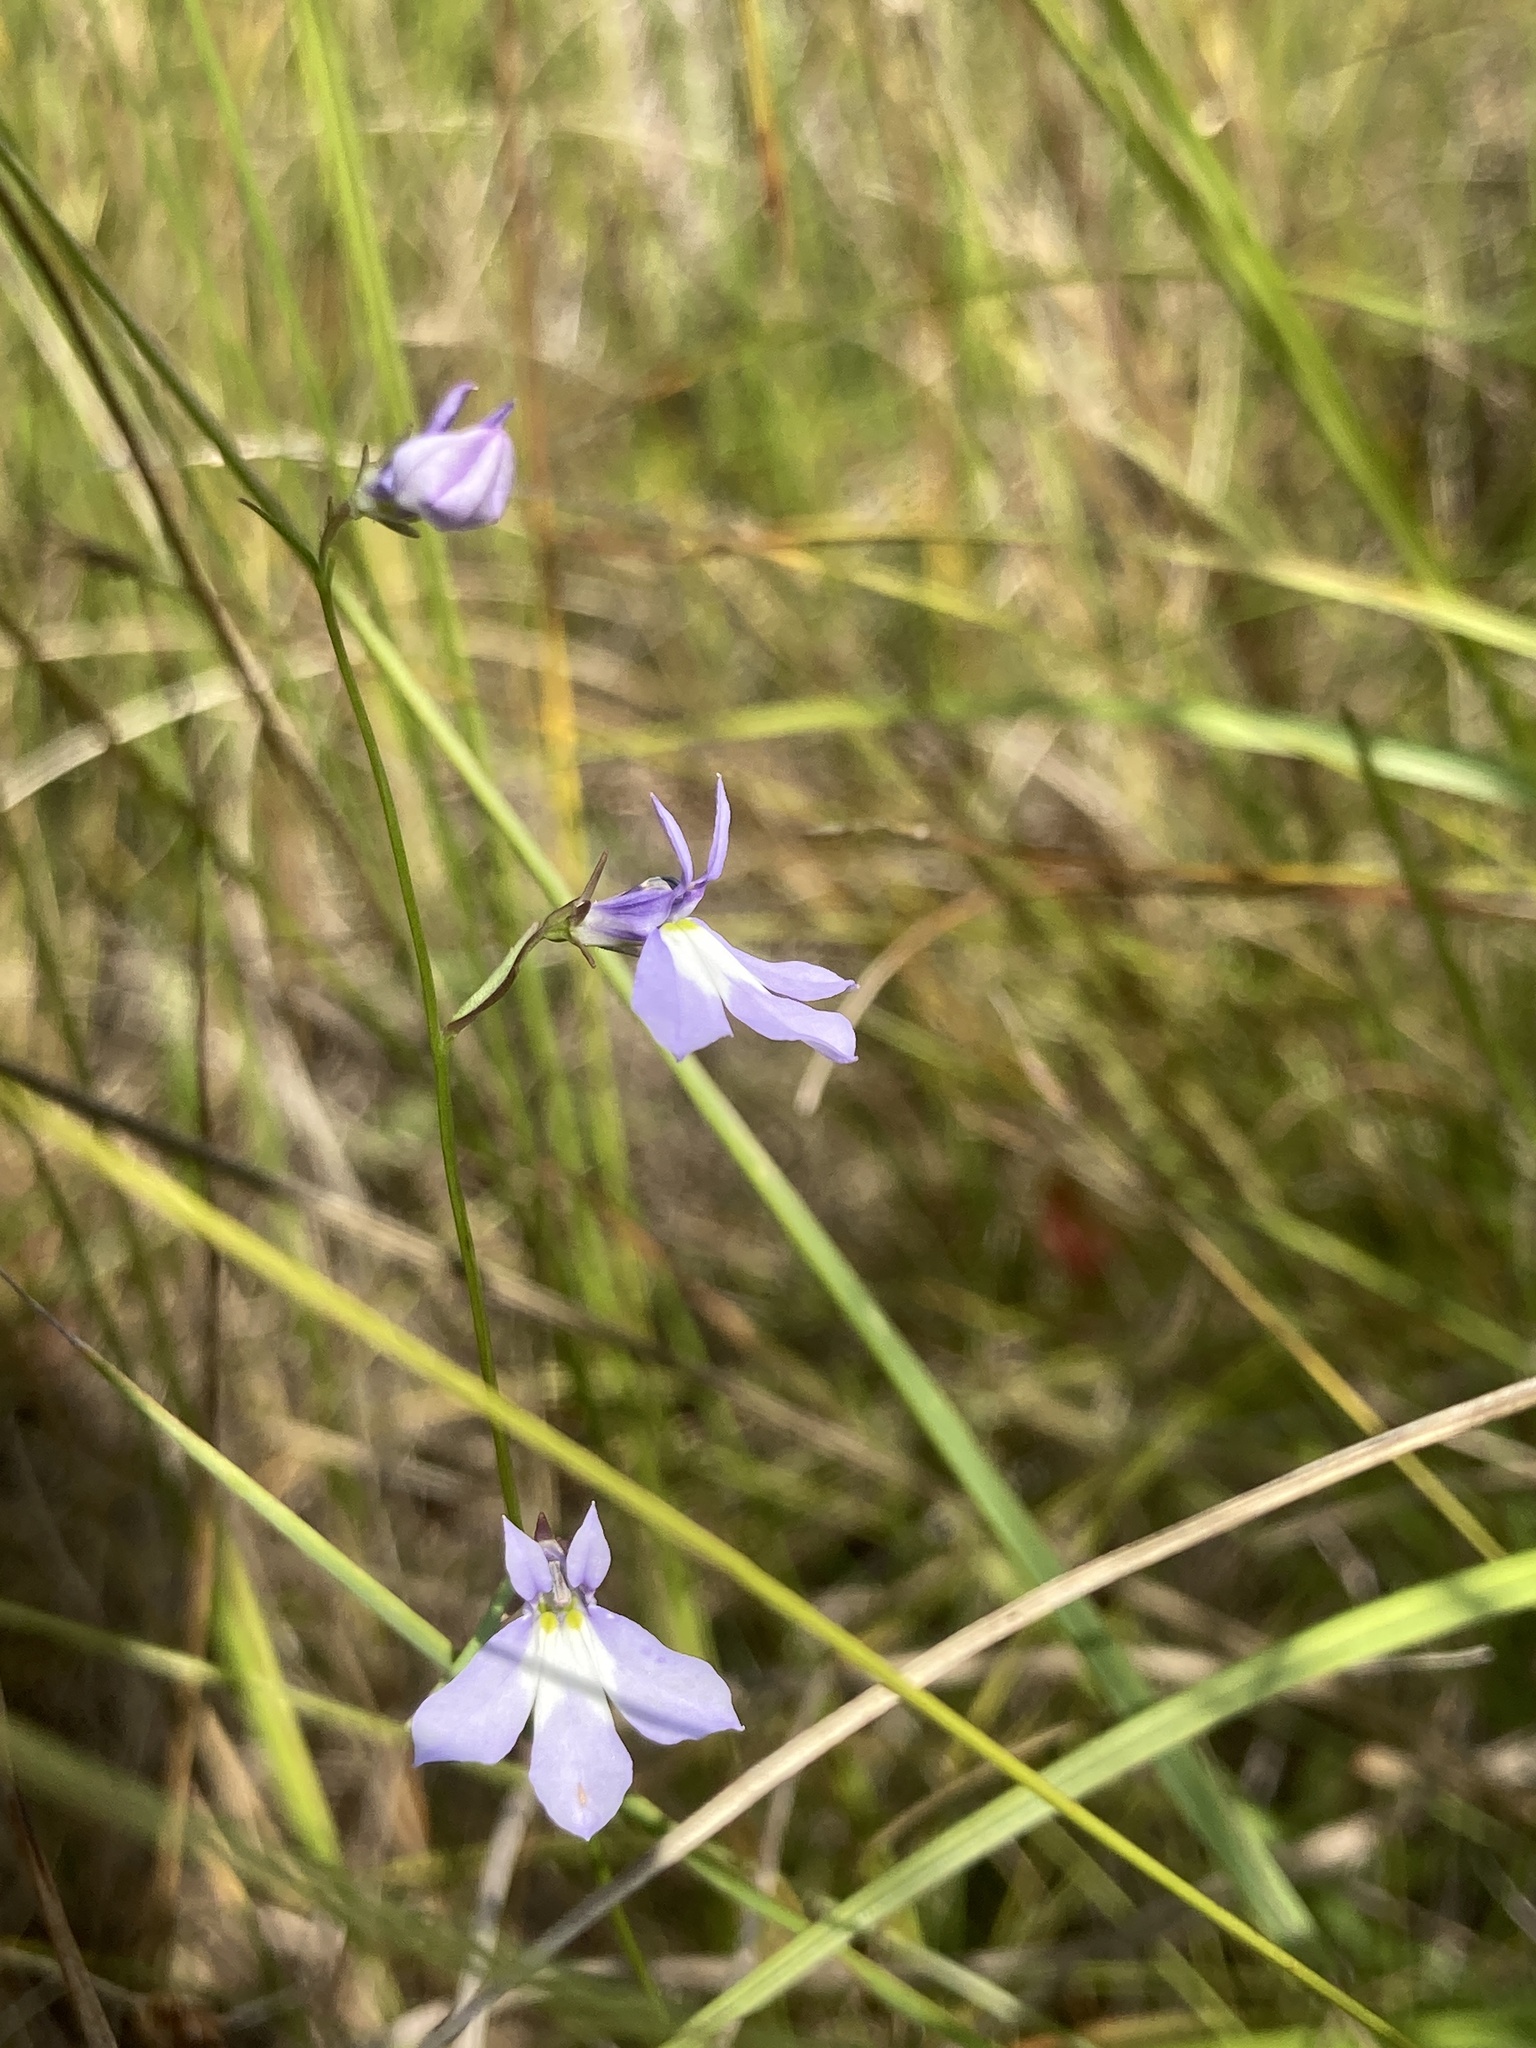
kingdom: Plantae
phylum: Tracheophyta
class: Magnoliopsida
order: Asterales
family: Campanulaceae
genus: Lobelia
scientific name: Lobelia kalmii
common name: Kalm's lobelia
